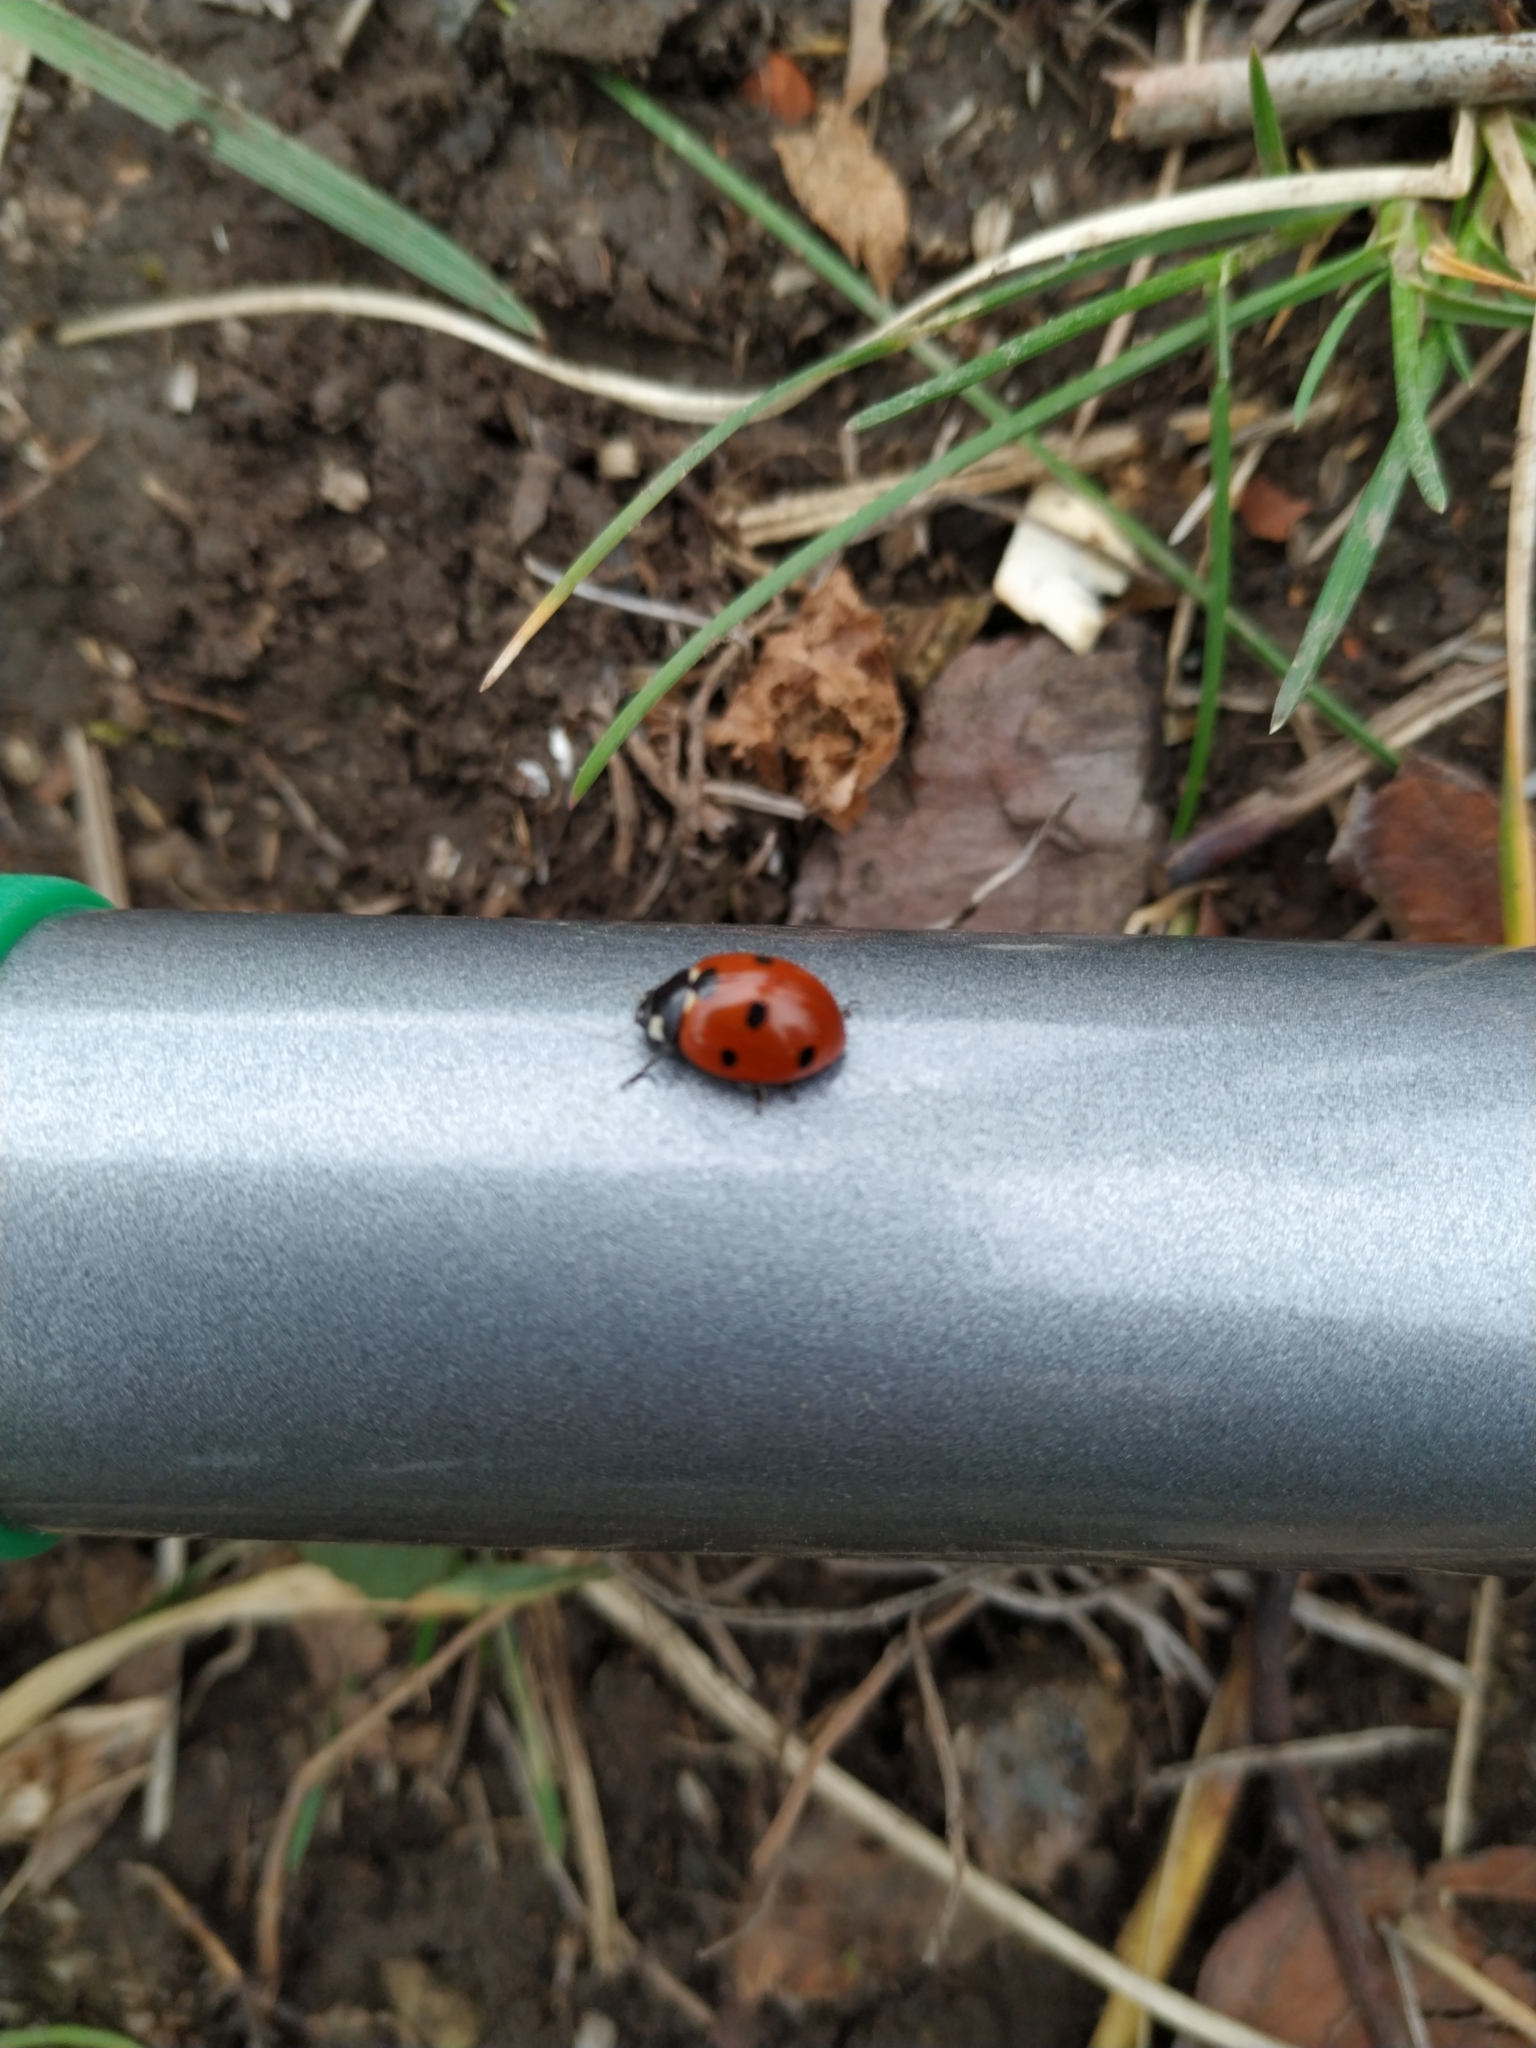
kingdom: Animalia
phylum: Arthropoda
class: Insecta
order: Coleoptera
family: Coccinellidae
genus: Coccinella
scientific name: Coccinella septempunctata
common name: Sevenspotted lady beetle
